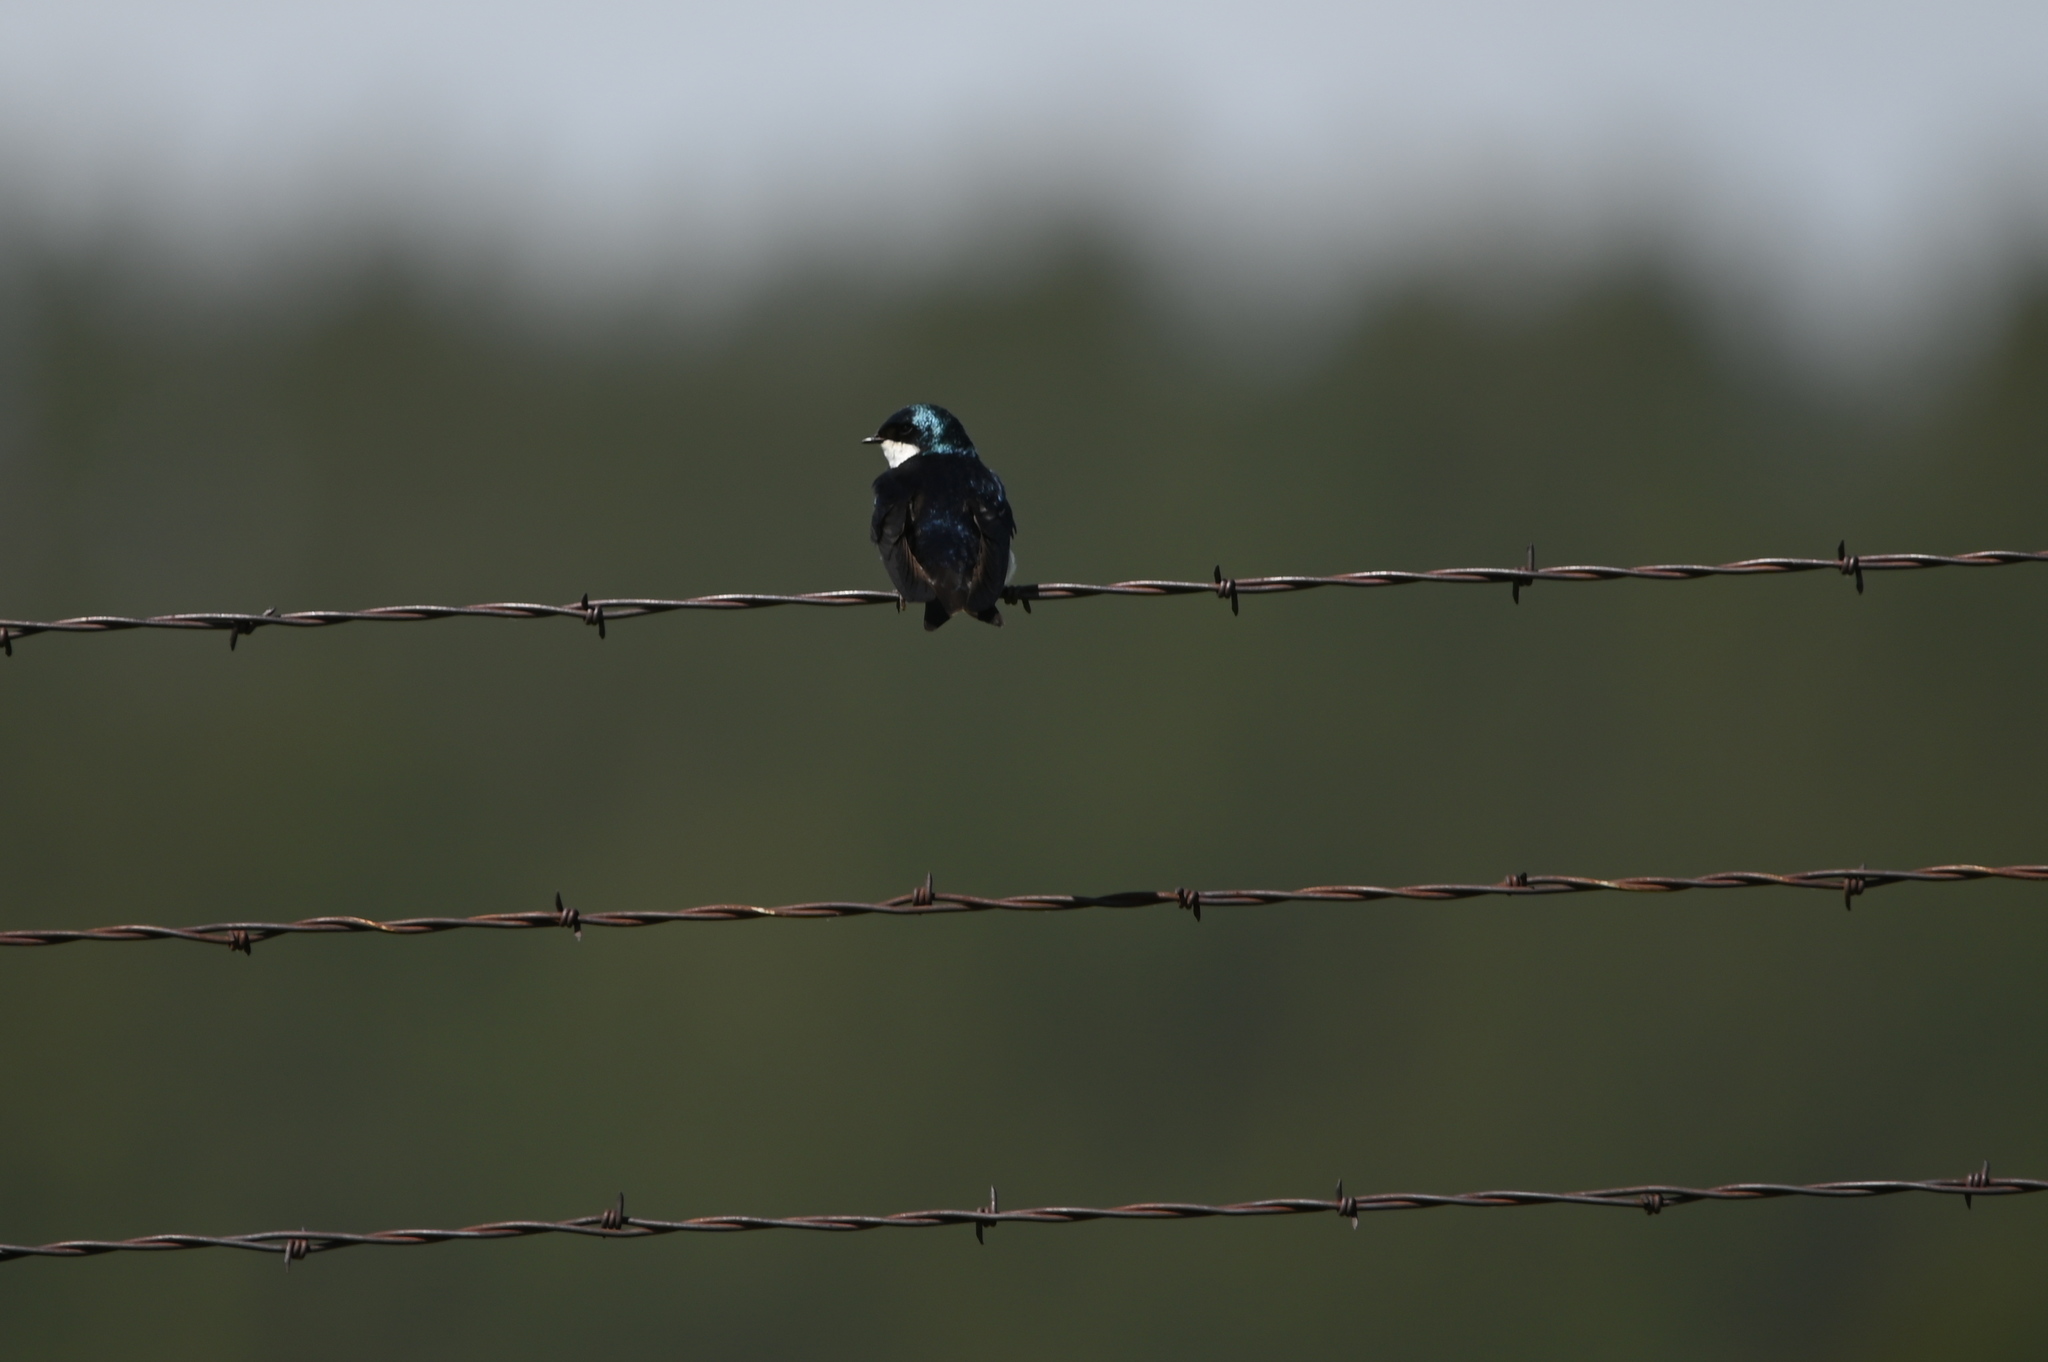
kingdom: Animalia
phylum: Chordata
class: Aves
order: Passeriformes
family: Hirundinidae
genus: Tachycineta
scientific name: Tachycineta bicolor
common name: Tree swallow
